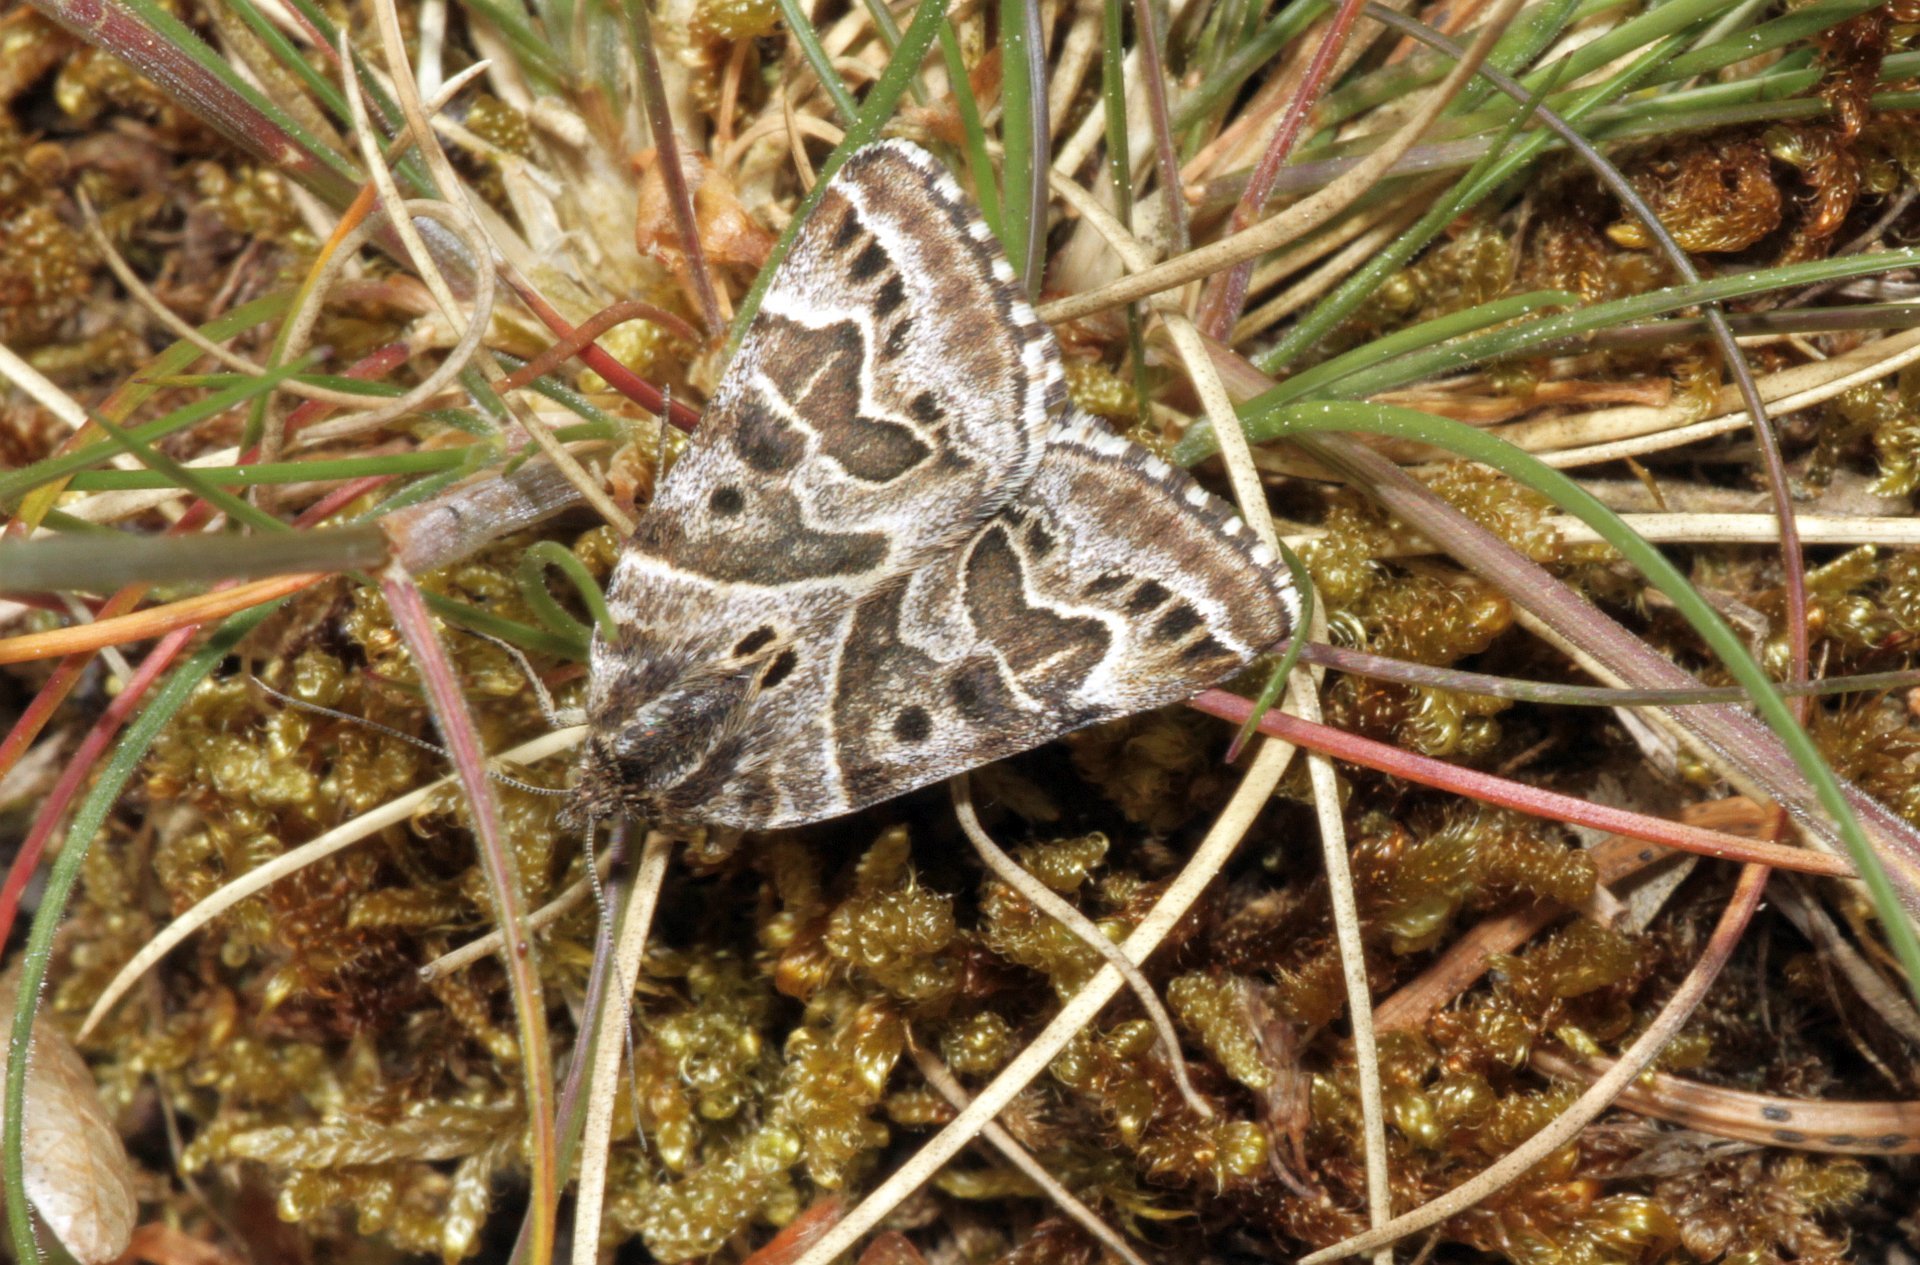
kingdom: Animalia
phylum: Arthropoda
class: Insecta
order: Lepidoptera
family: Erebidae
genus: Callistege
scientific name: Callistege mi
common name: Mother shipton
